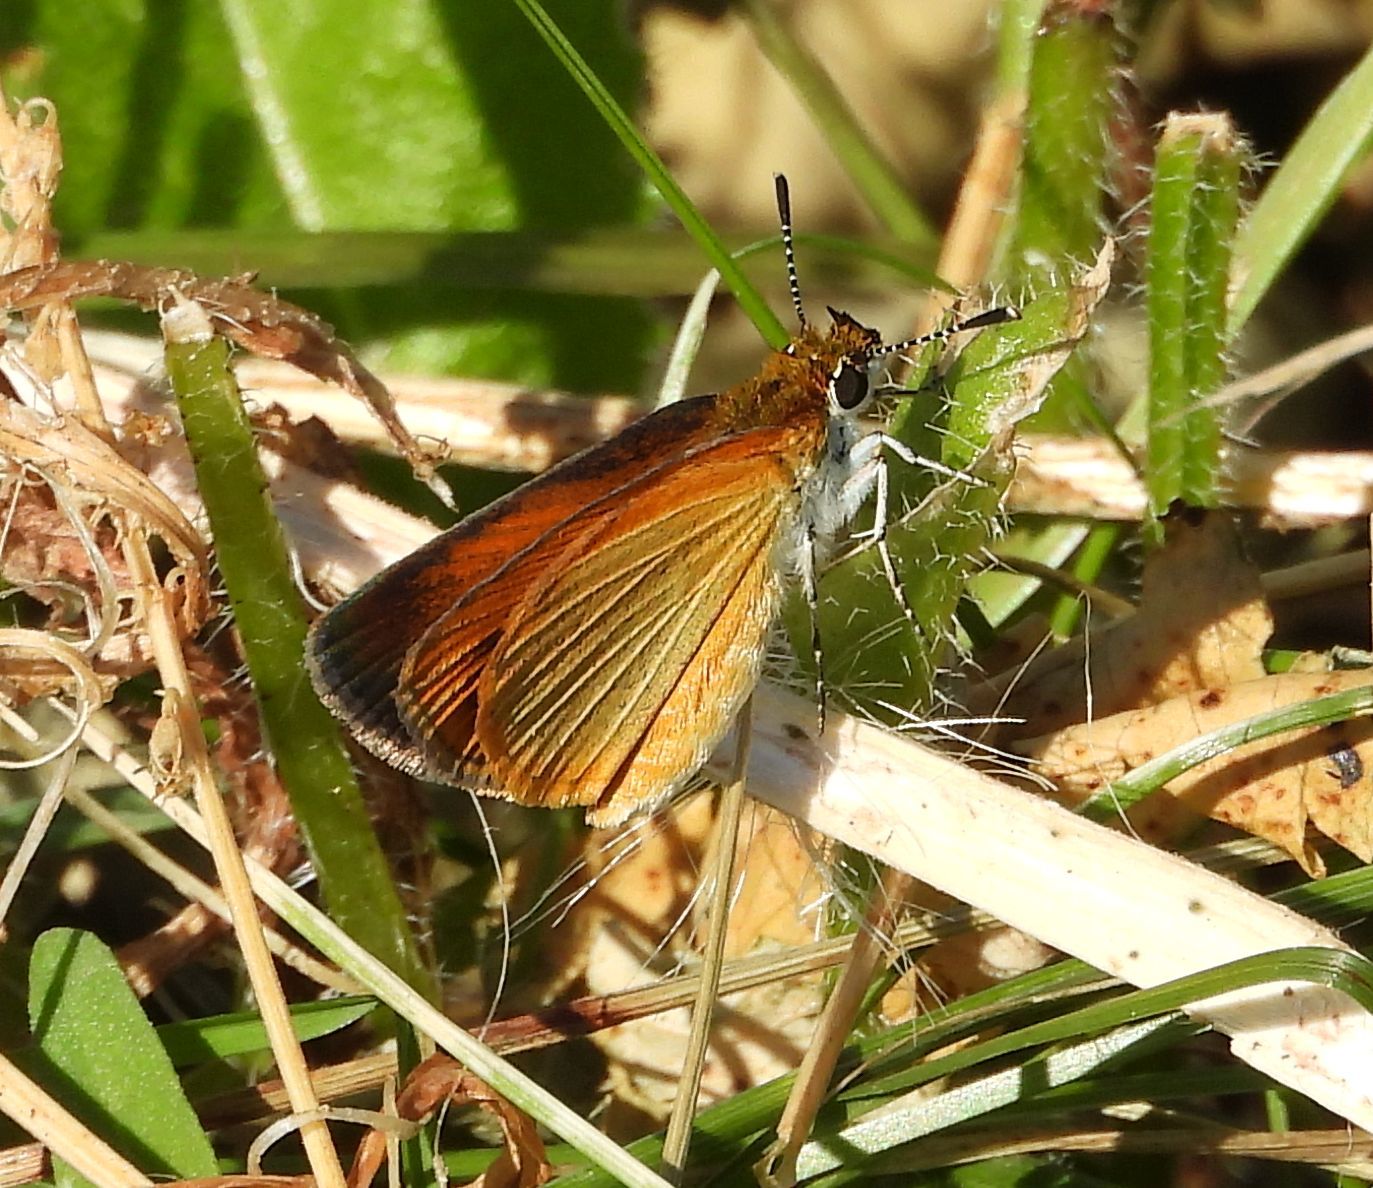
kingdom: Animalia
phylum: Arthropoda
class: Insecta
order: Lepidoptera
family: Hesperiidae
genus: Ancyloxypha
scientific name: Ancyloxypha numitor
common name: Least skipper
